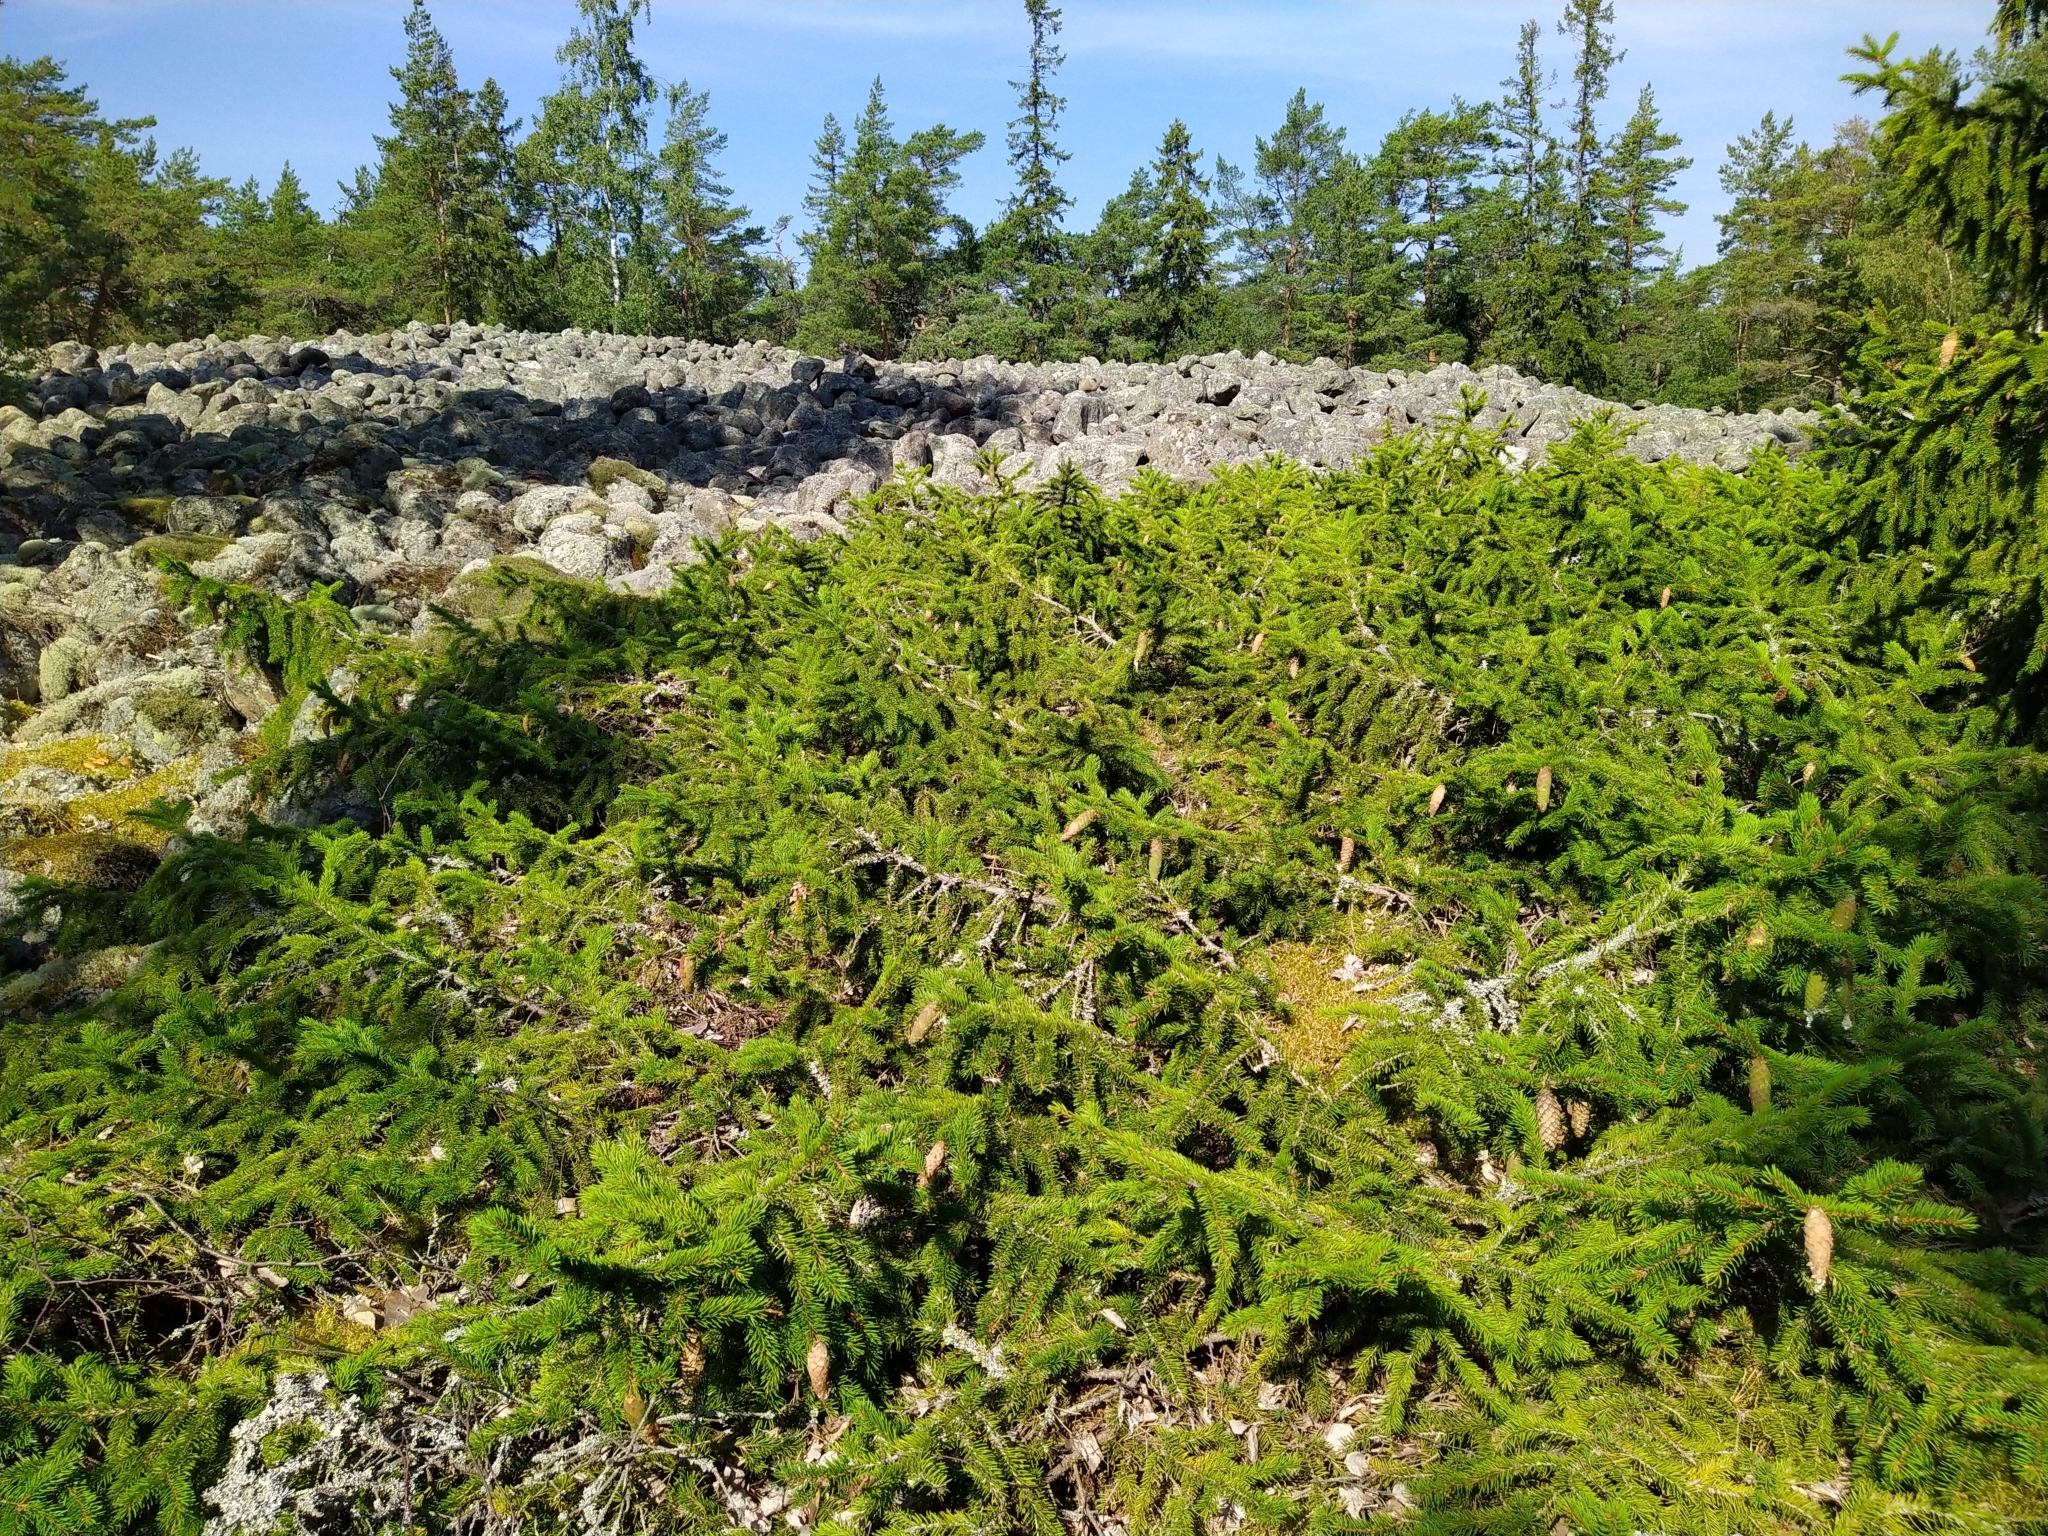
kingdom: Plantae
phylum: Tracheophyta
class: Pinopsida
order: Pinales
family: Pinaceae
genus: Picea
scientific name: Picea abies
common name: Norway spruce
